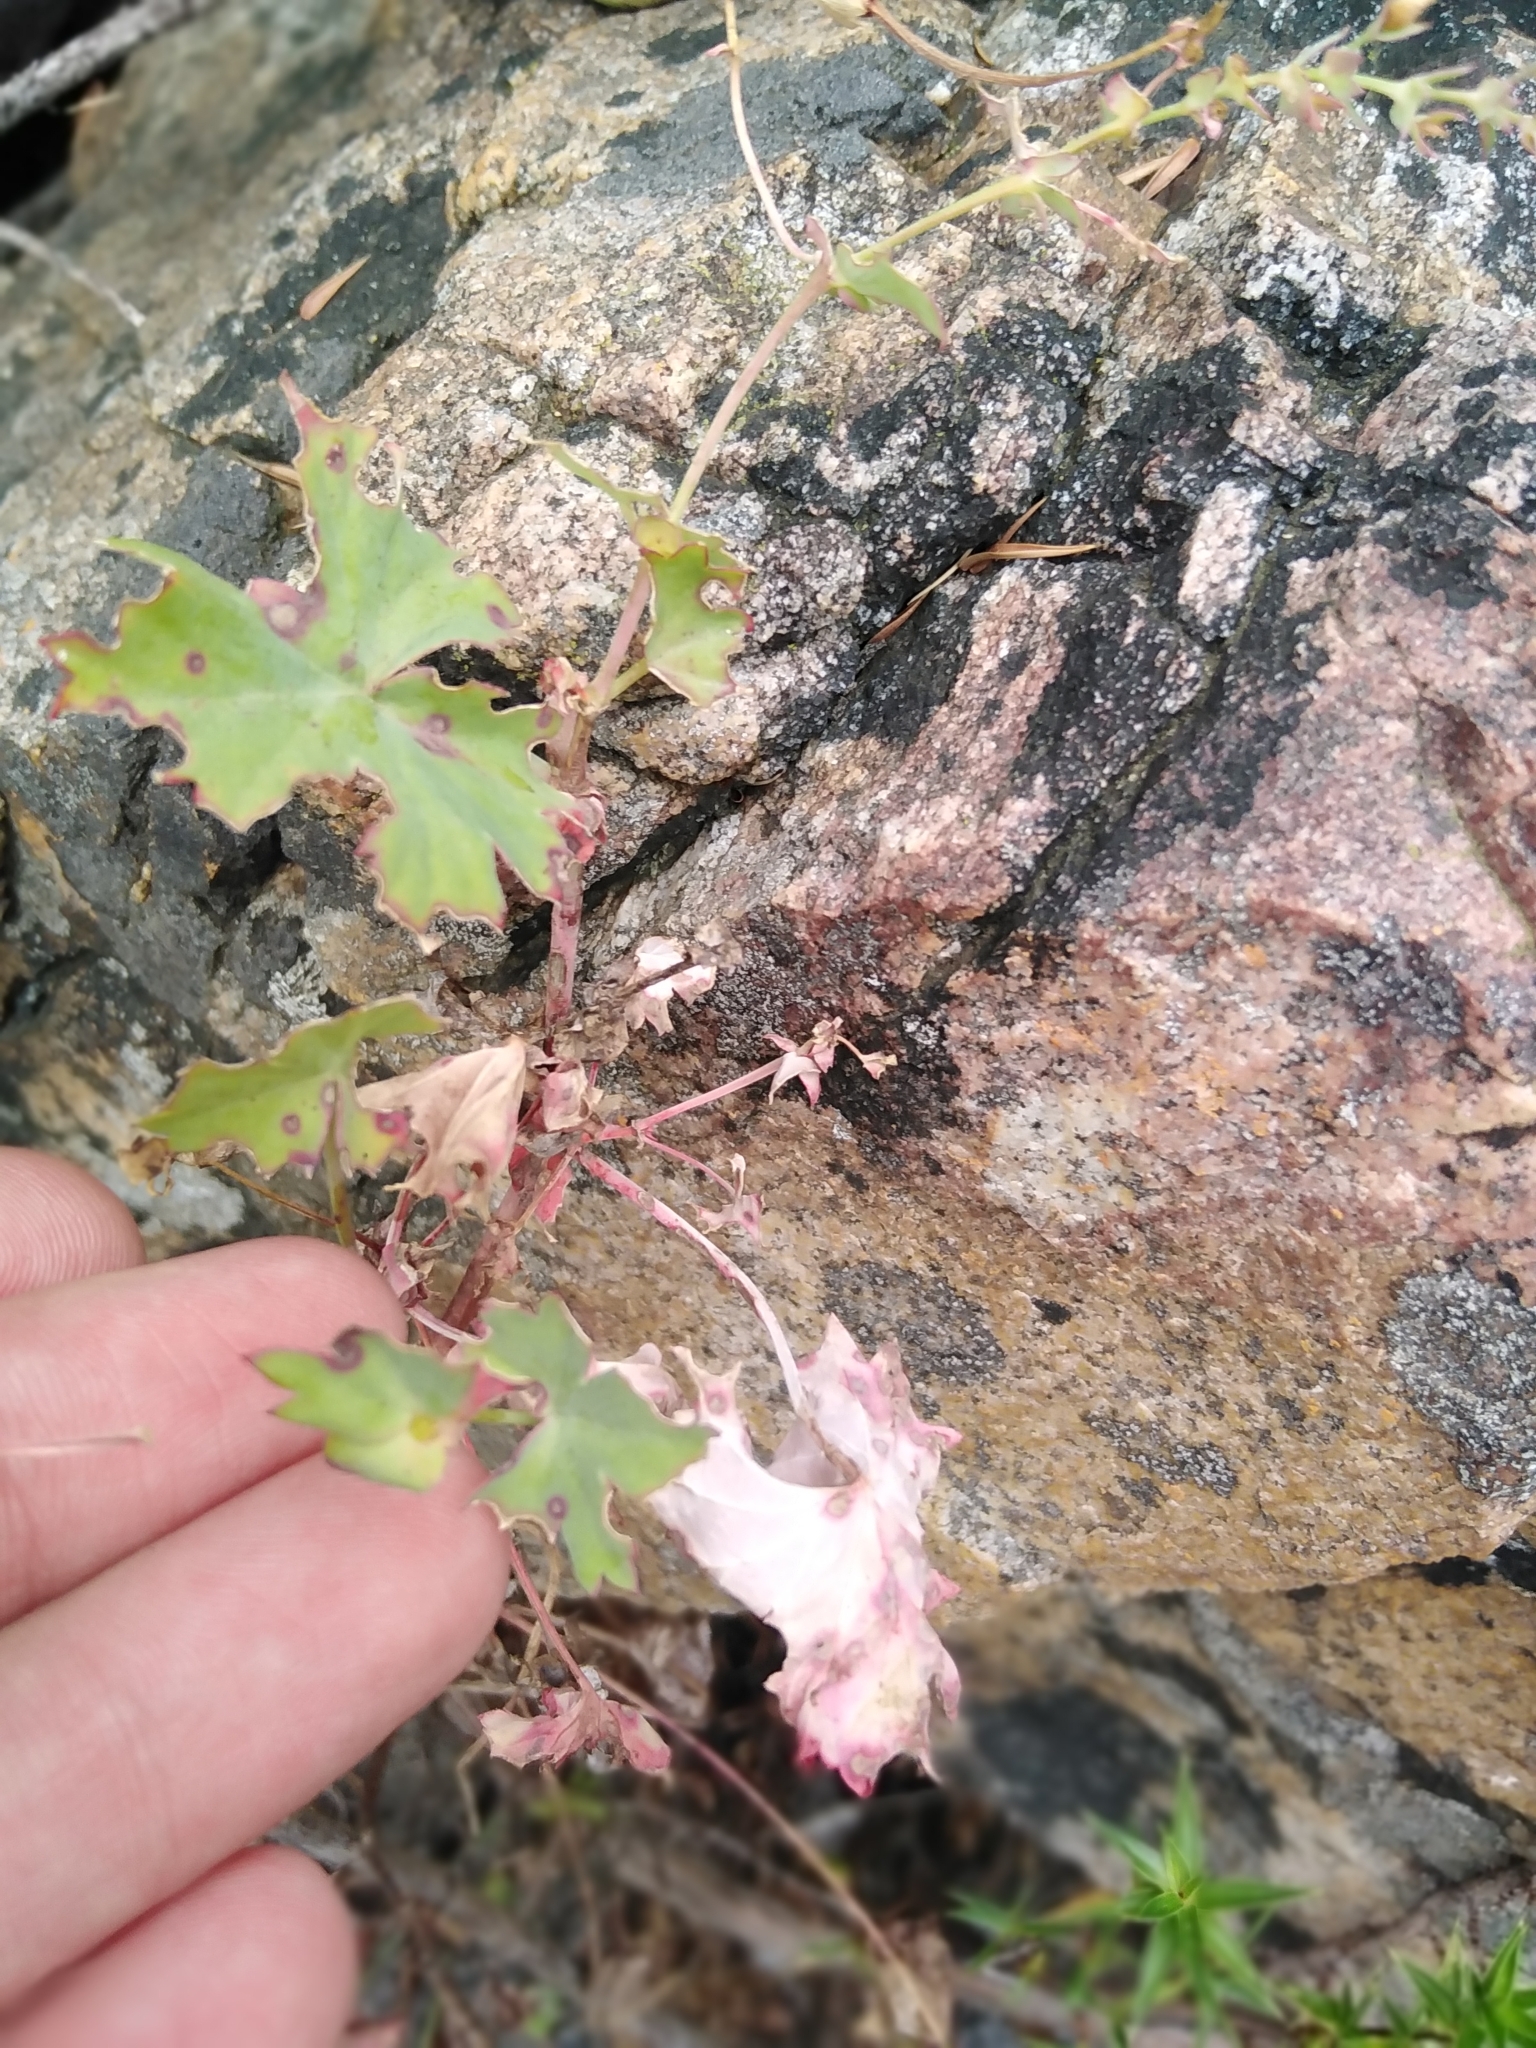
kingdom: Plantae
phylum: Tracheophyta
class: Magnoliopsida
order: Geraniales
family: Geraniaceae
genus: Pelargonium
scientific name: Pelargonium patulum
